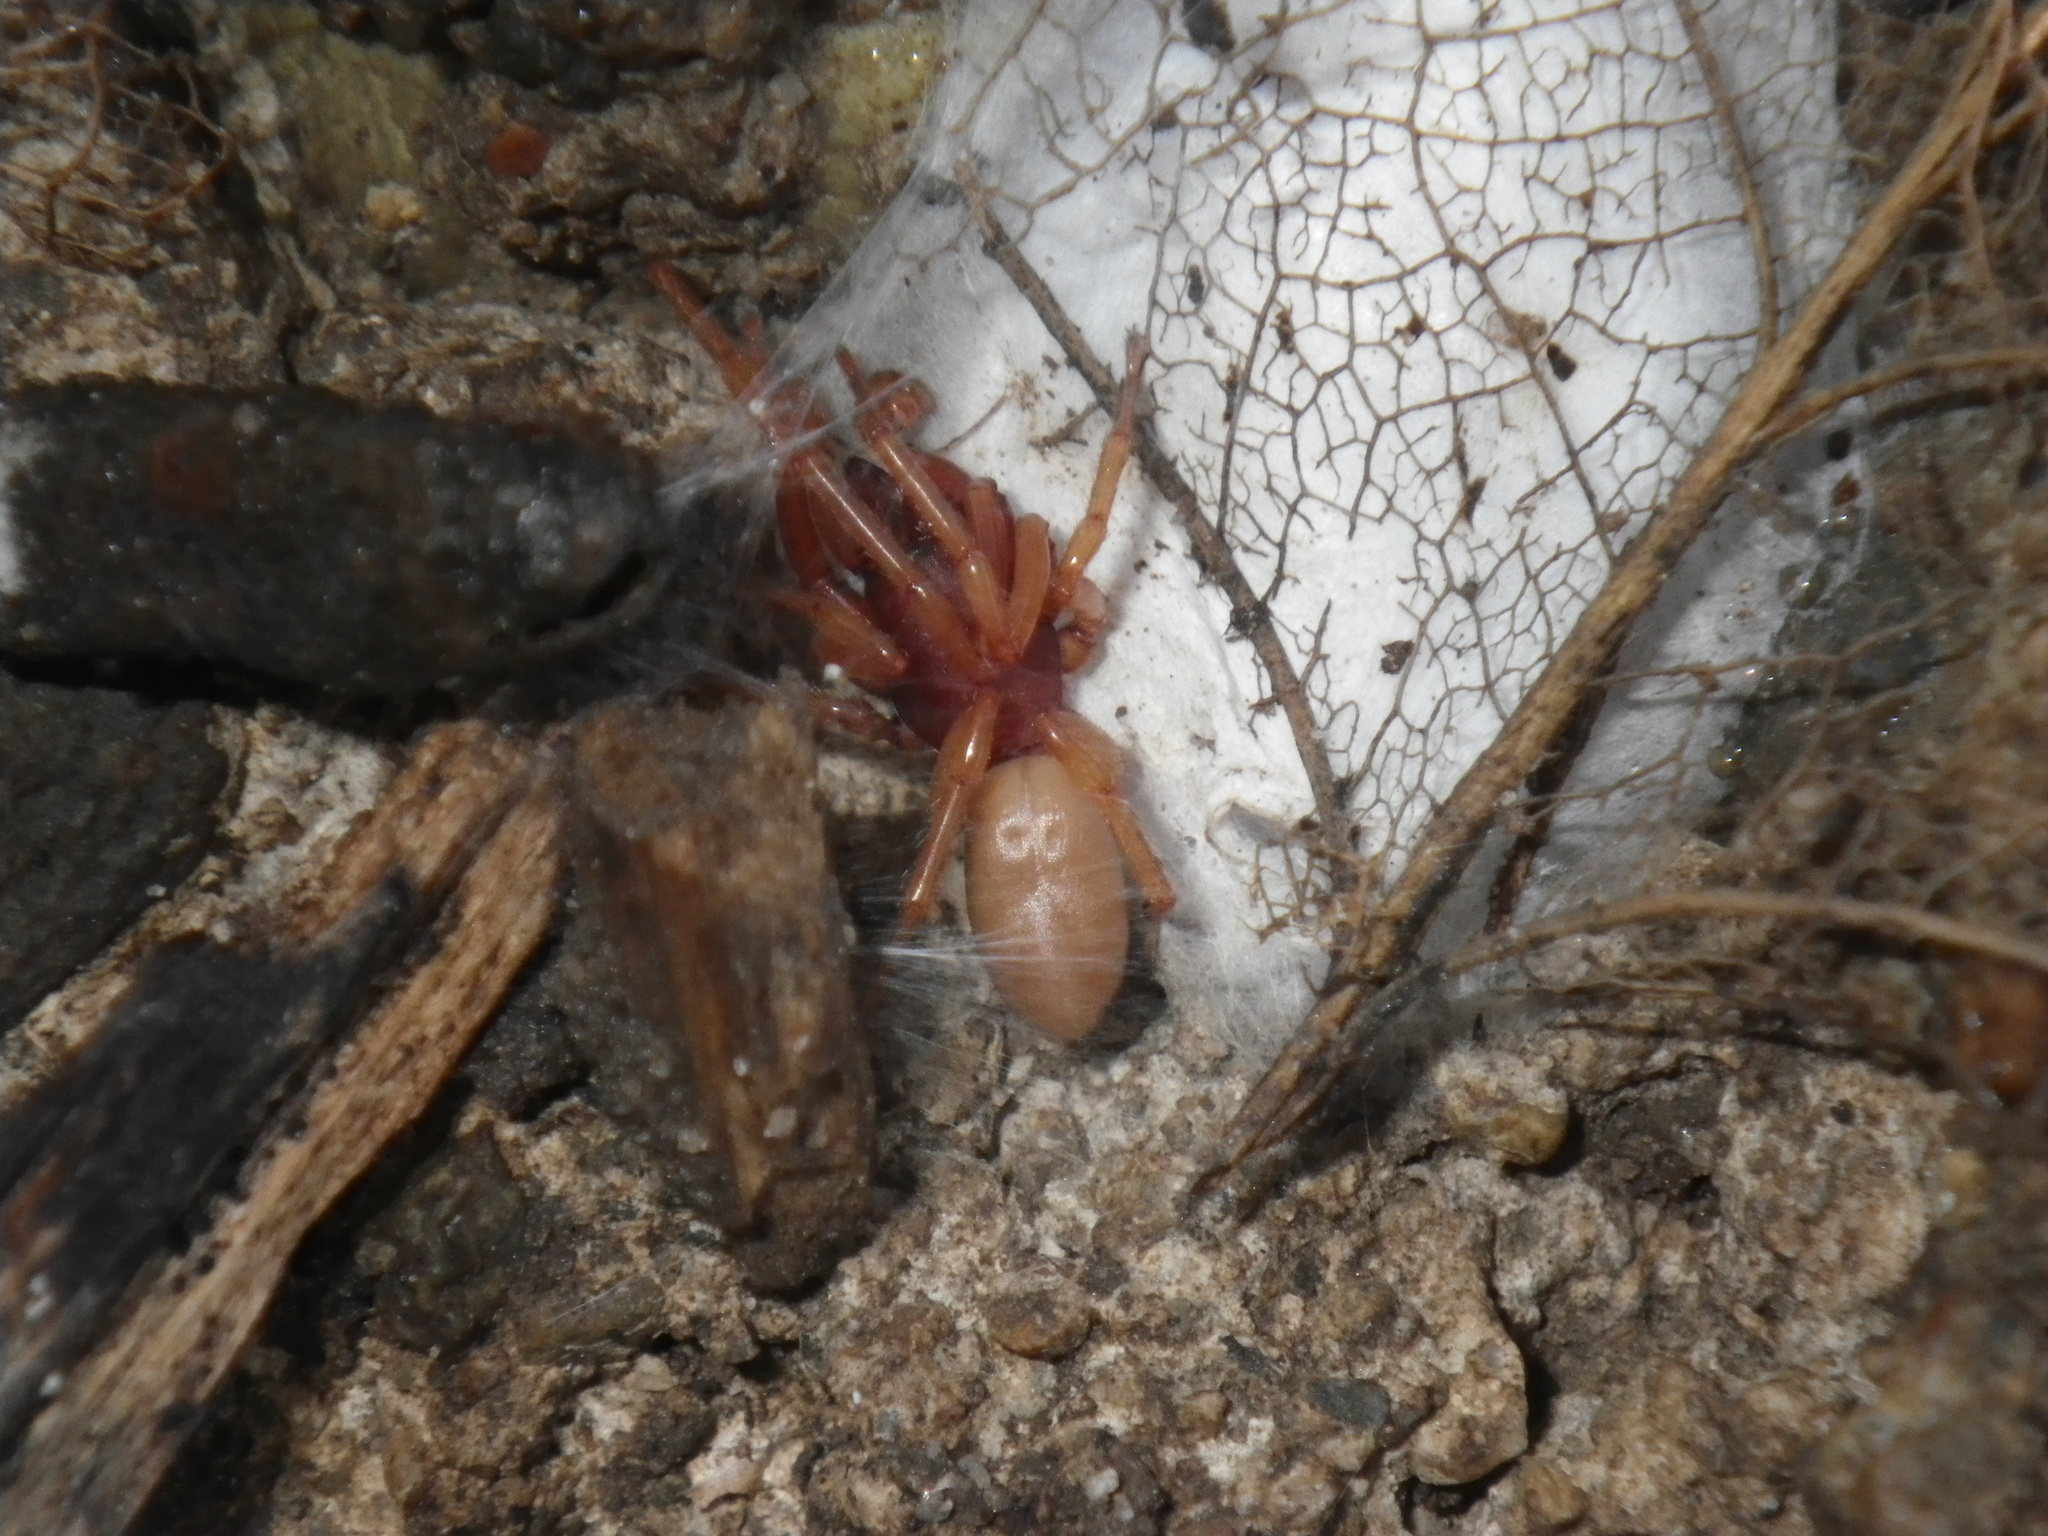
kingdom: Animalia
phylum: Arthropoda
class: Arachnida
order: Araneae
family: Dysderidae
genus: Dysdera
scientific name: Dysdera crocata
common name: Woodlouse spider
